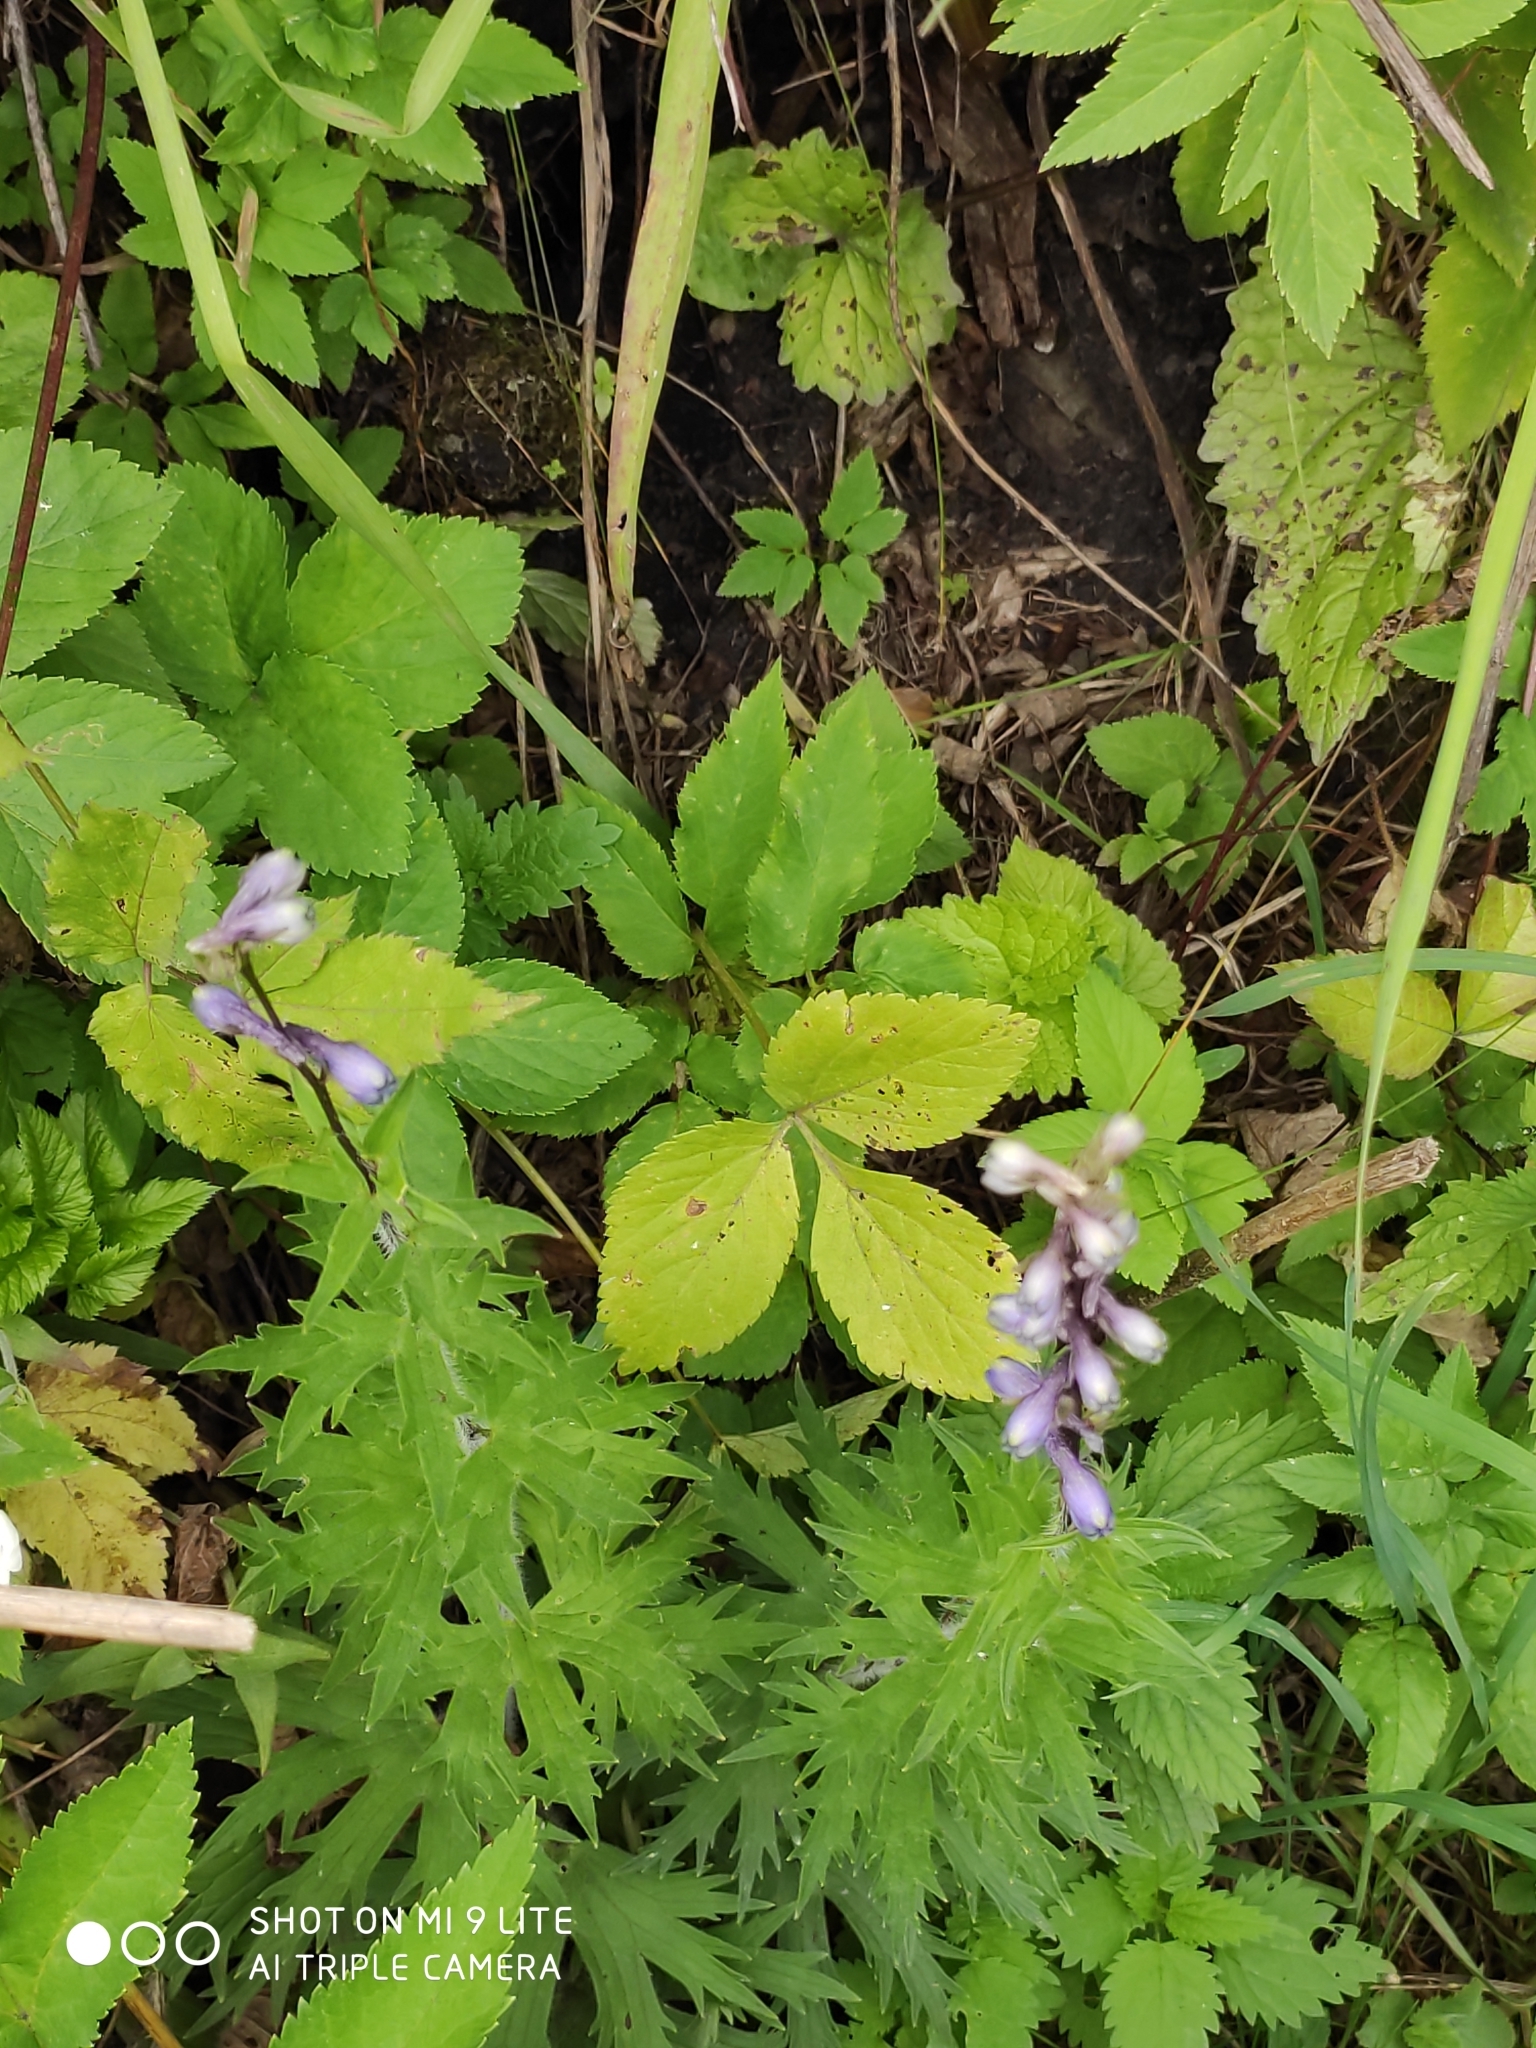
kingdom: Plantae
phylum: Tracheophyta
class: Magnoliopsida
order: Ranunculales
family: Ranunculaceae
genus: Delphinium
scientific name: Delphinium retropilosum
